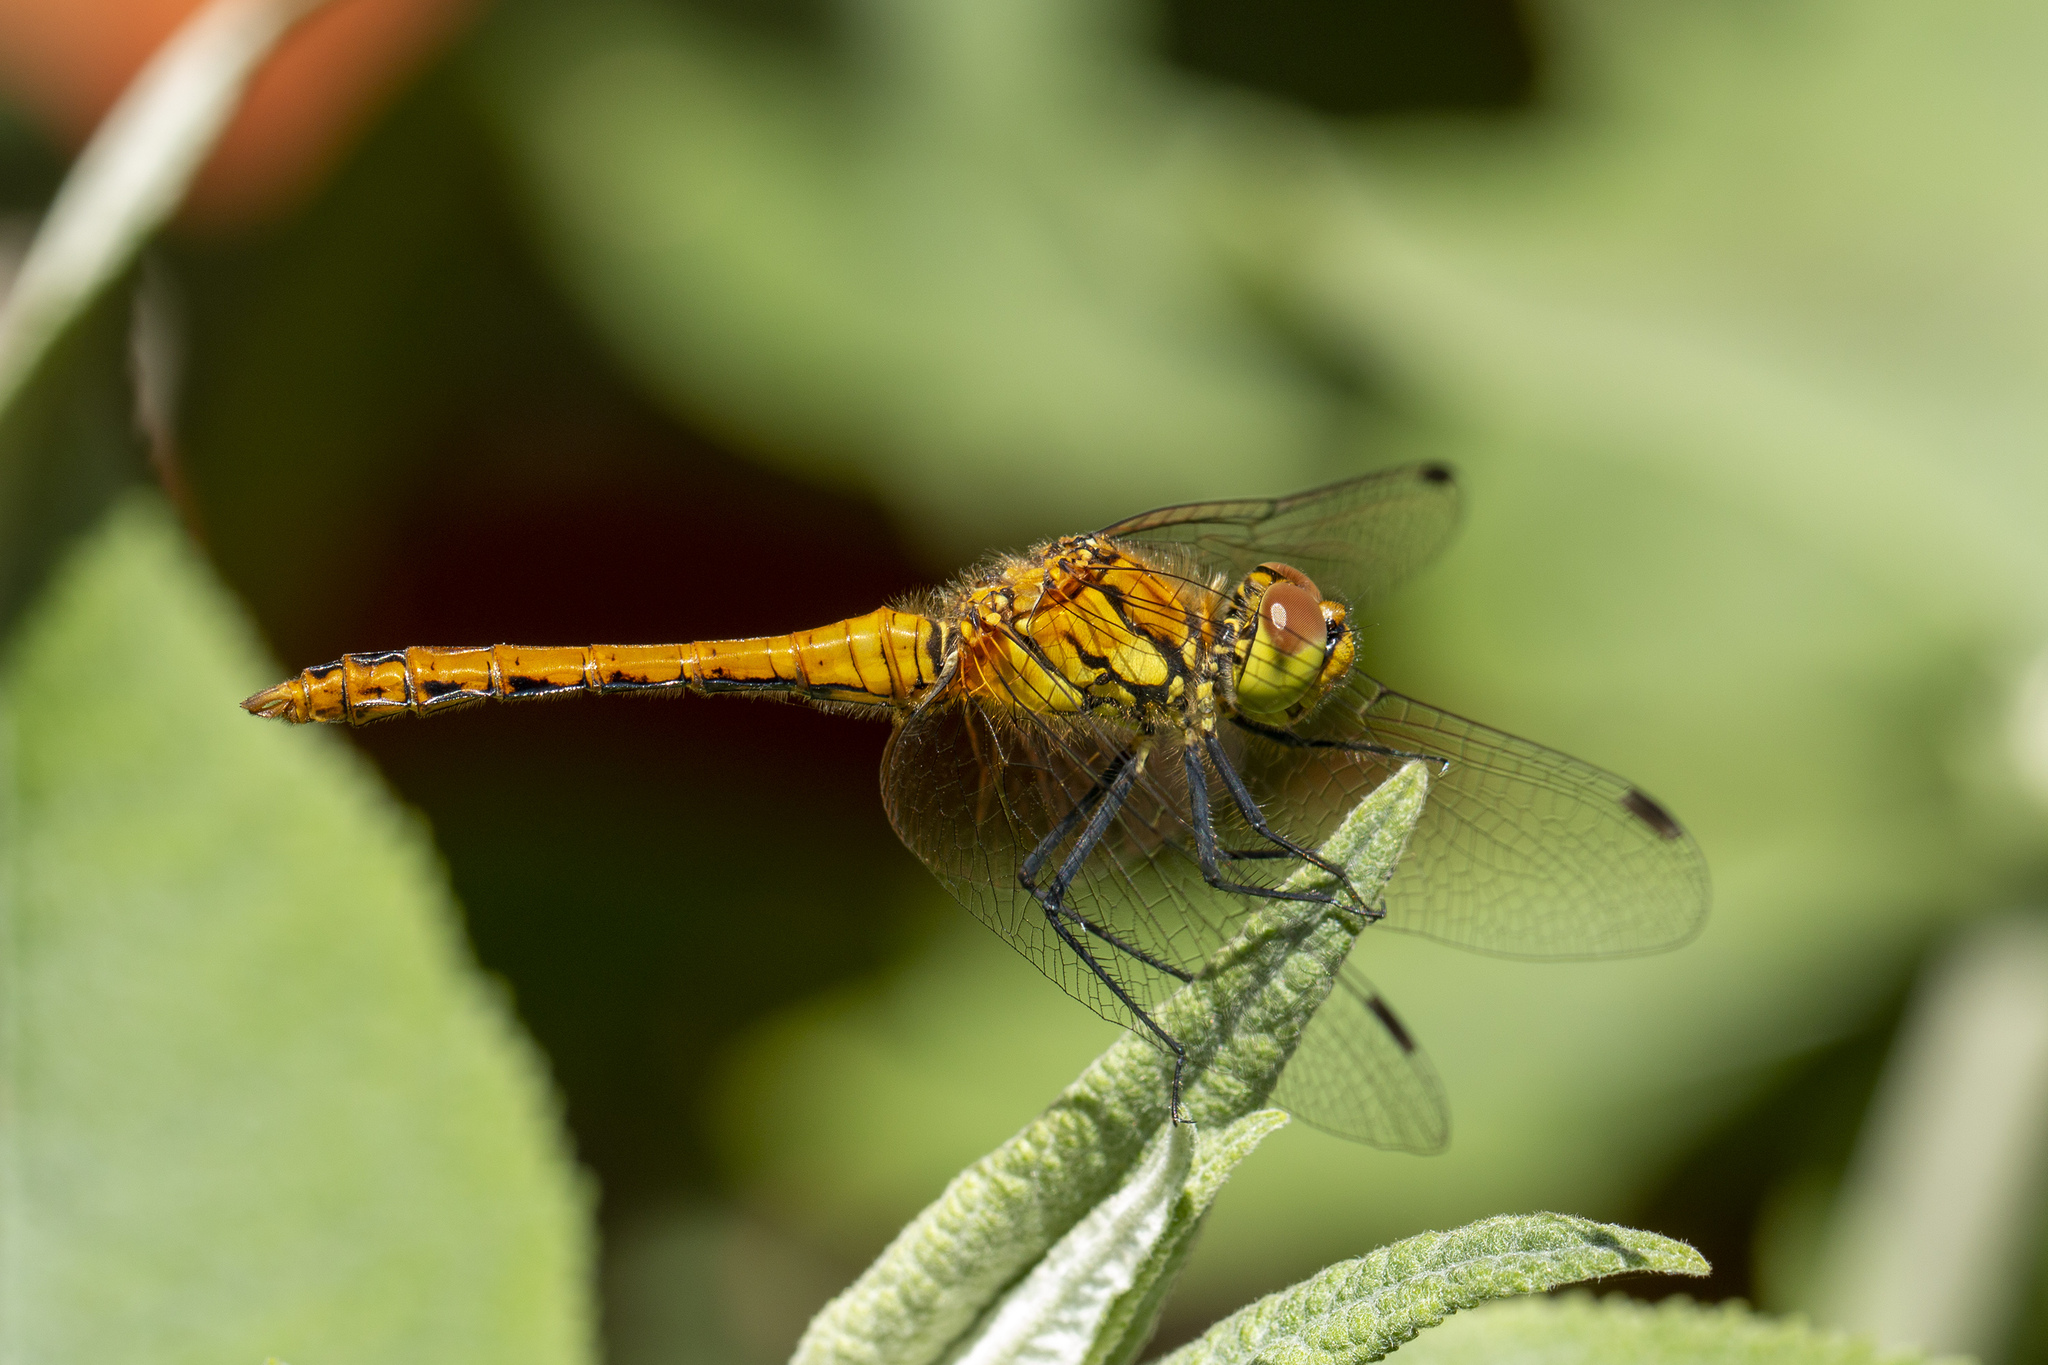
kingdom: Animalia
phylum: Arthropoda
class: Insecta
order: Odonata
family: Libellulidae
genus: Sympetrum
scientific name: Sympetrum sanguineum
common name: Ruddy darter
